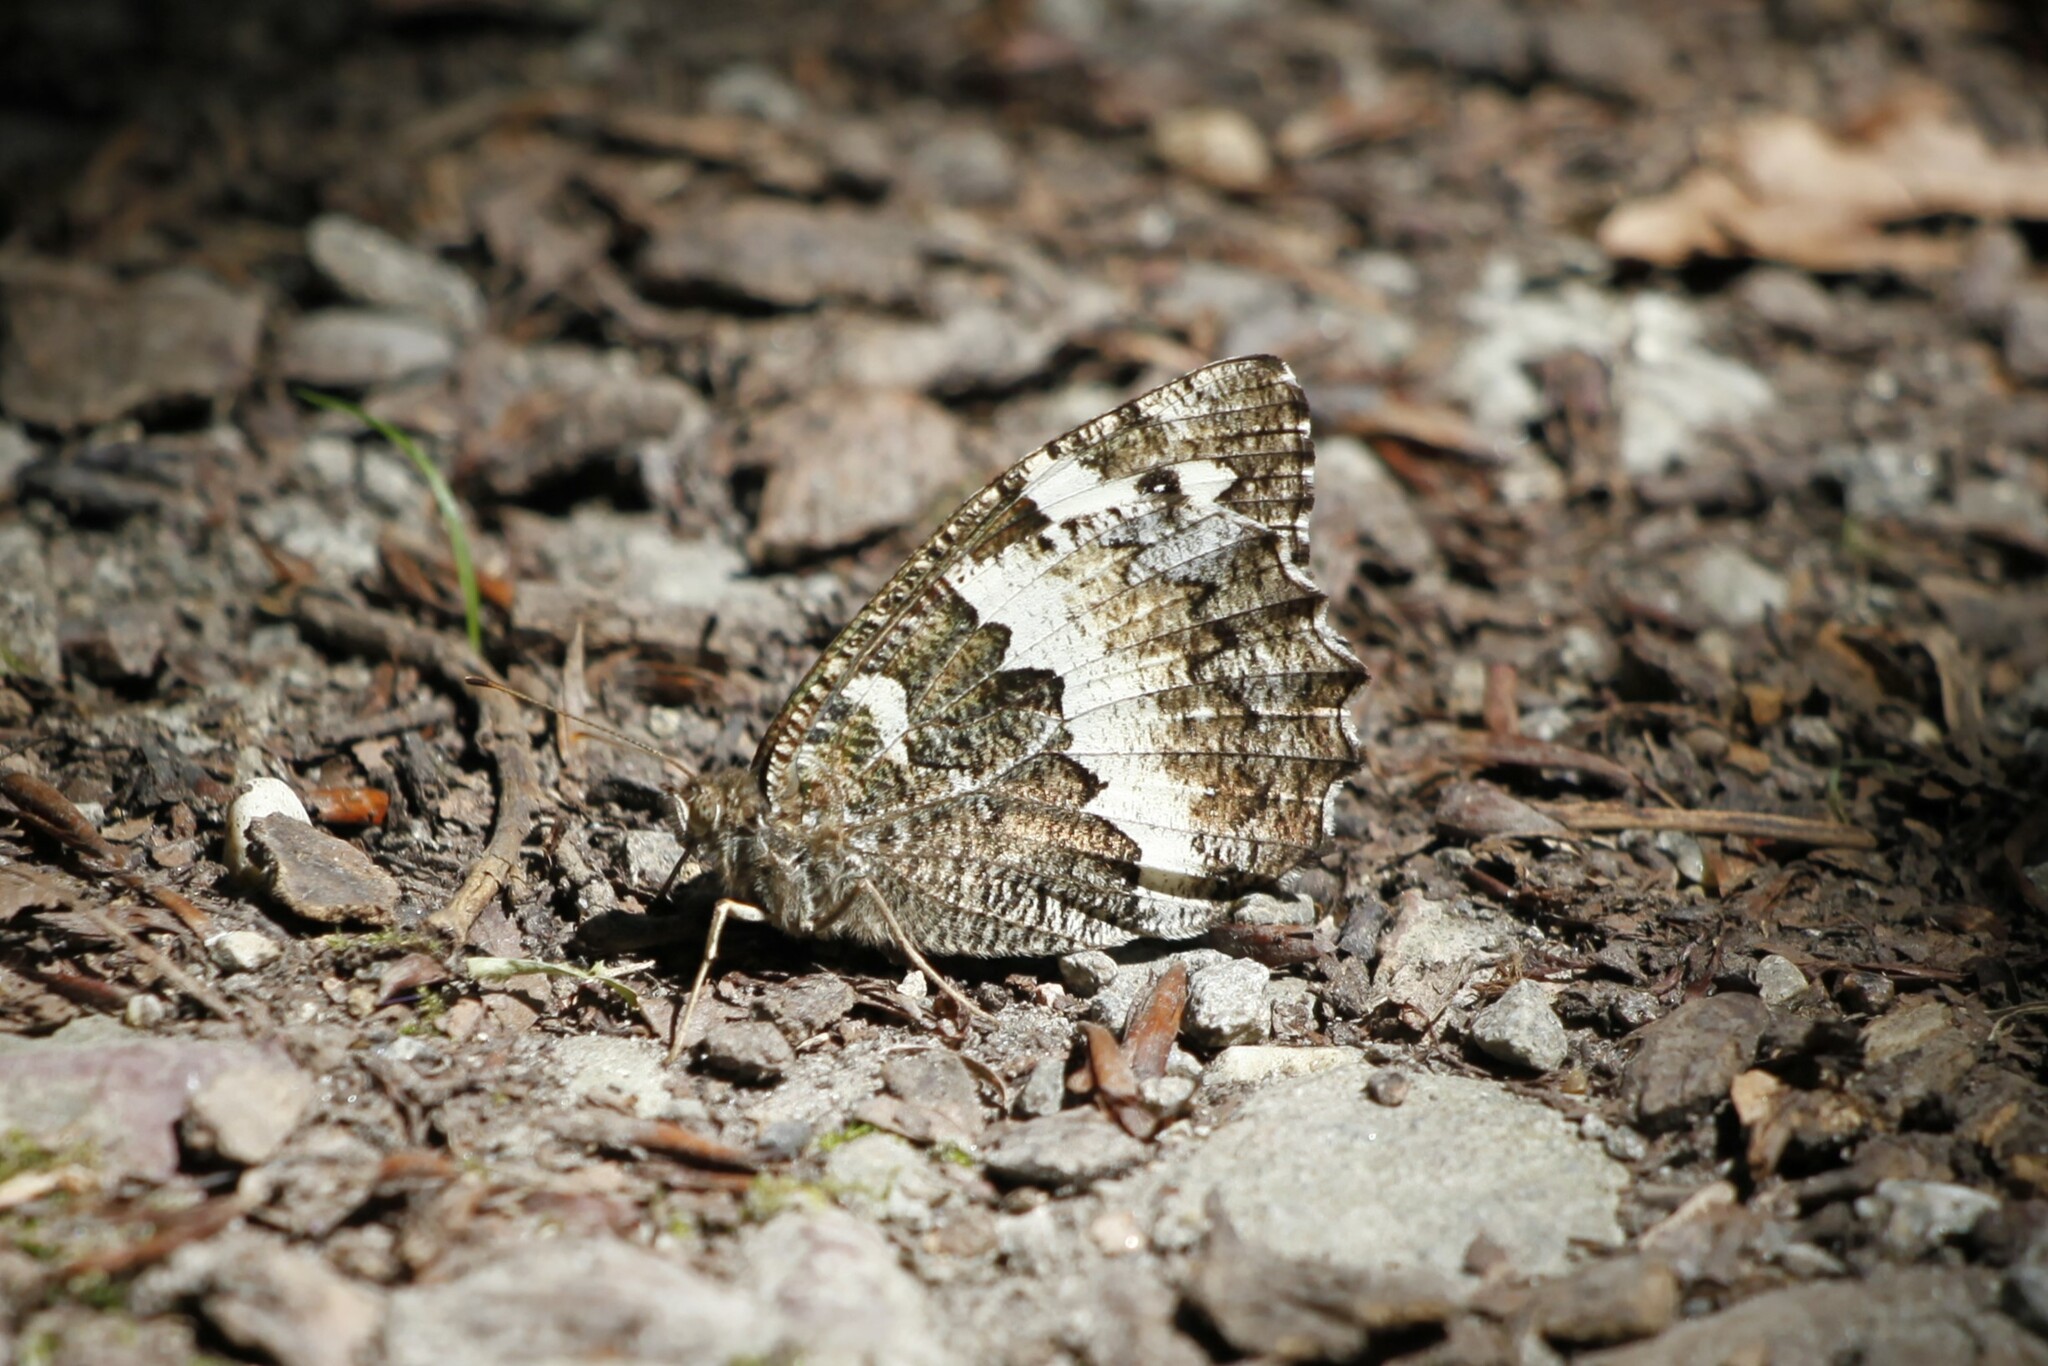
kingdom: Animalia
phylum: Arthropoda
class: Insecta
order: Lepidoptera
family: Lycaenidae
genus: Loweia
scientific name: Loweia tityrus
